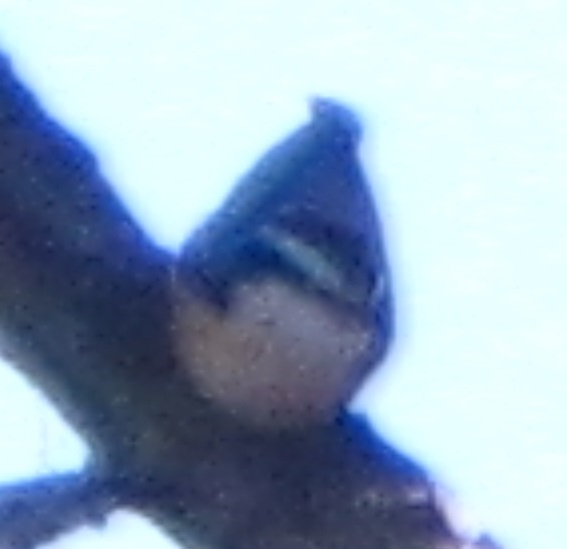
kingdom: Animalia
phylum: Chordata
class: Aves
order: Passeriformes
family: Sittidae
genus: Sitta
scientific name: Sitta canadensis
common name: Red-breasted nuthatch
